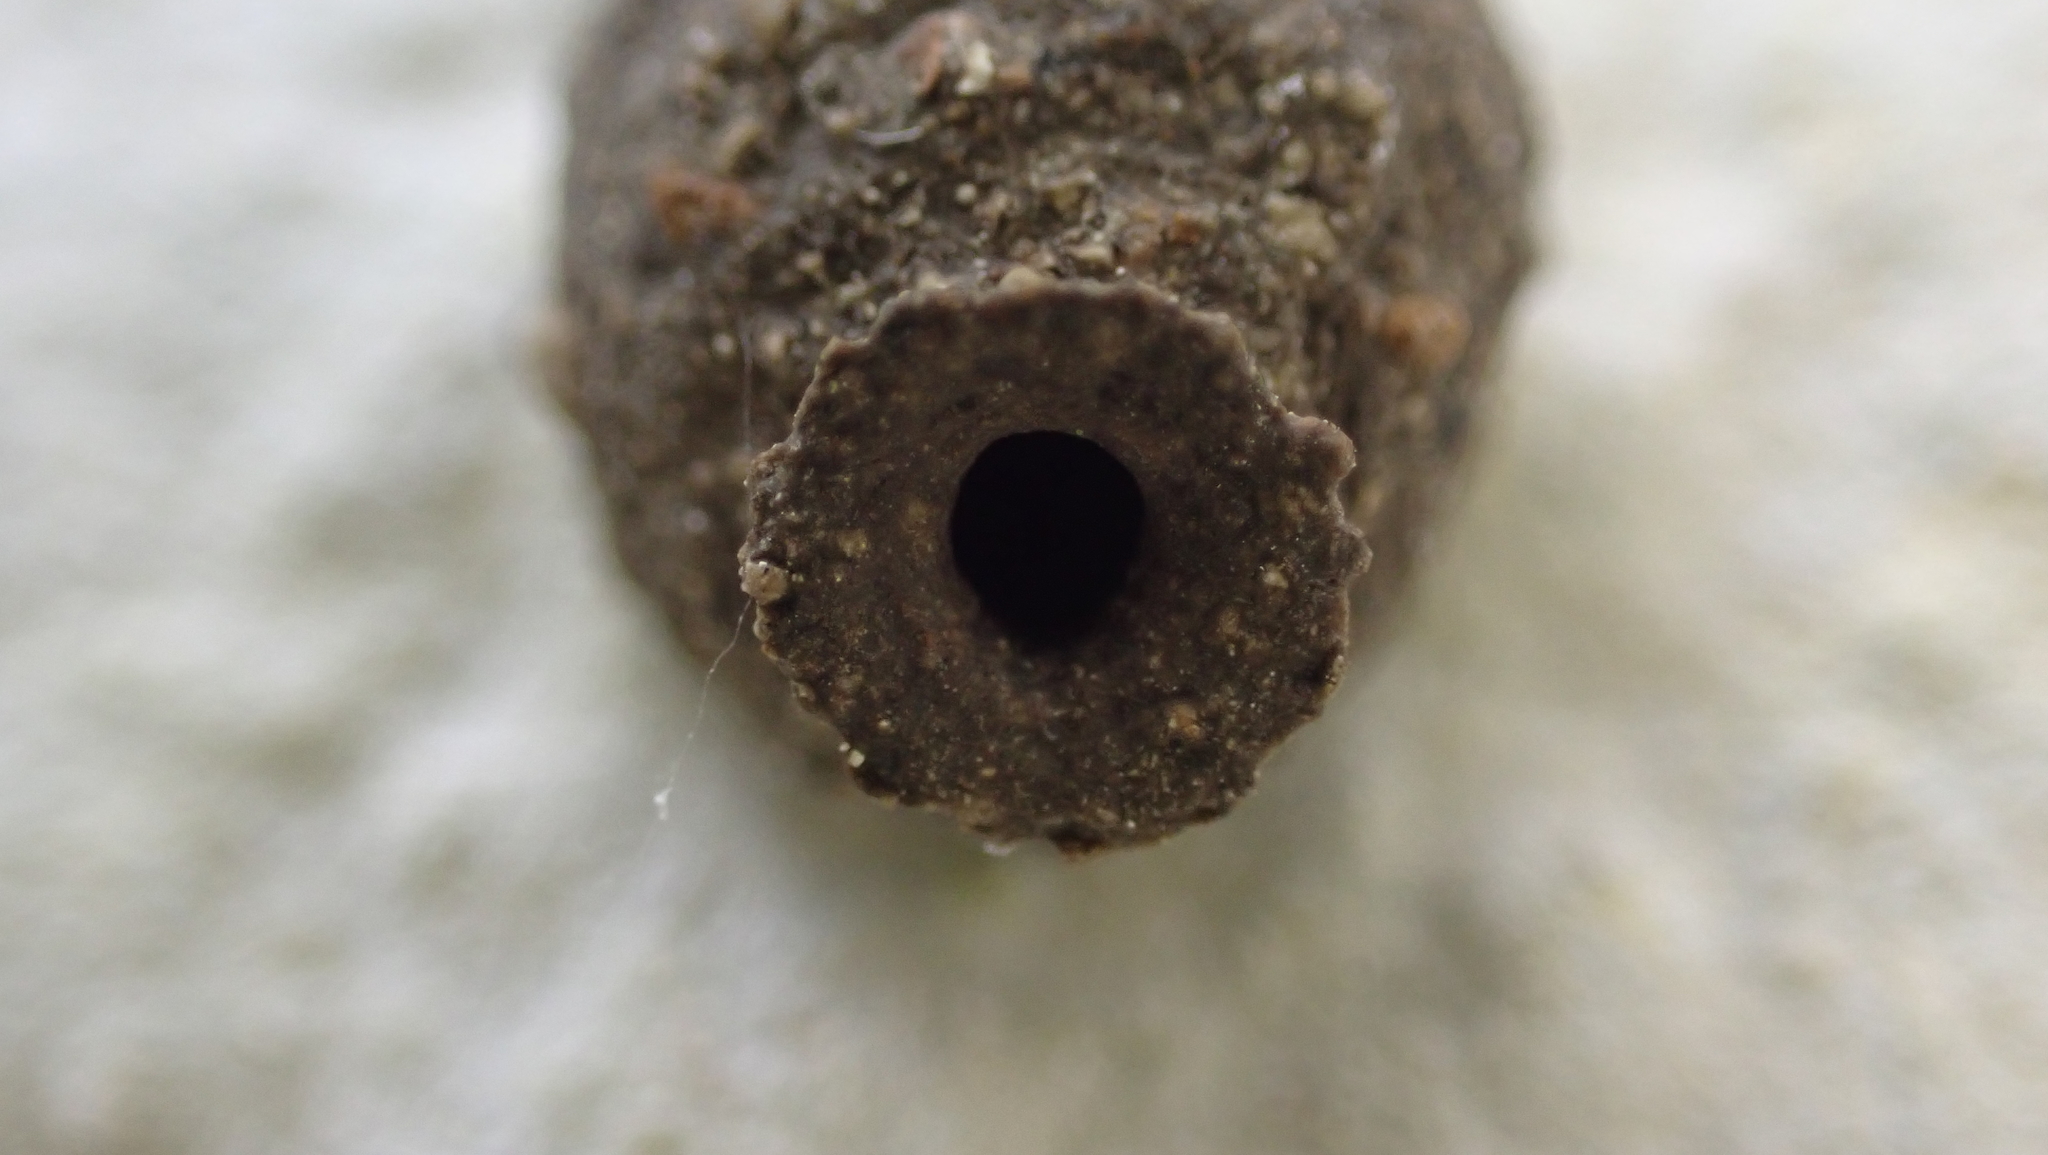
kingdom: Animalia
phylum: Arthropoda
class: Insecta
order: Hymenoptera
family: Eumenidae
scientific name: Eumenidae
